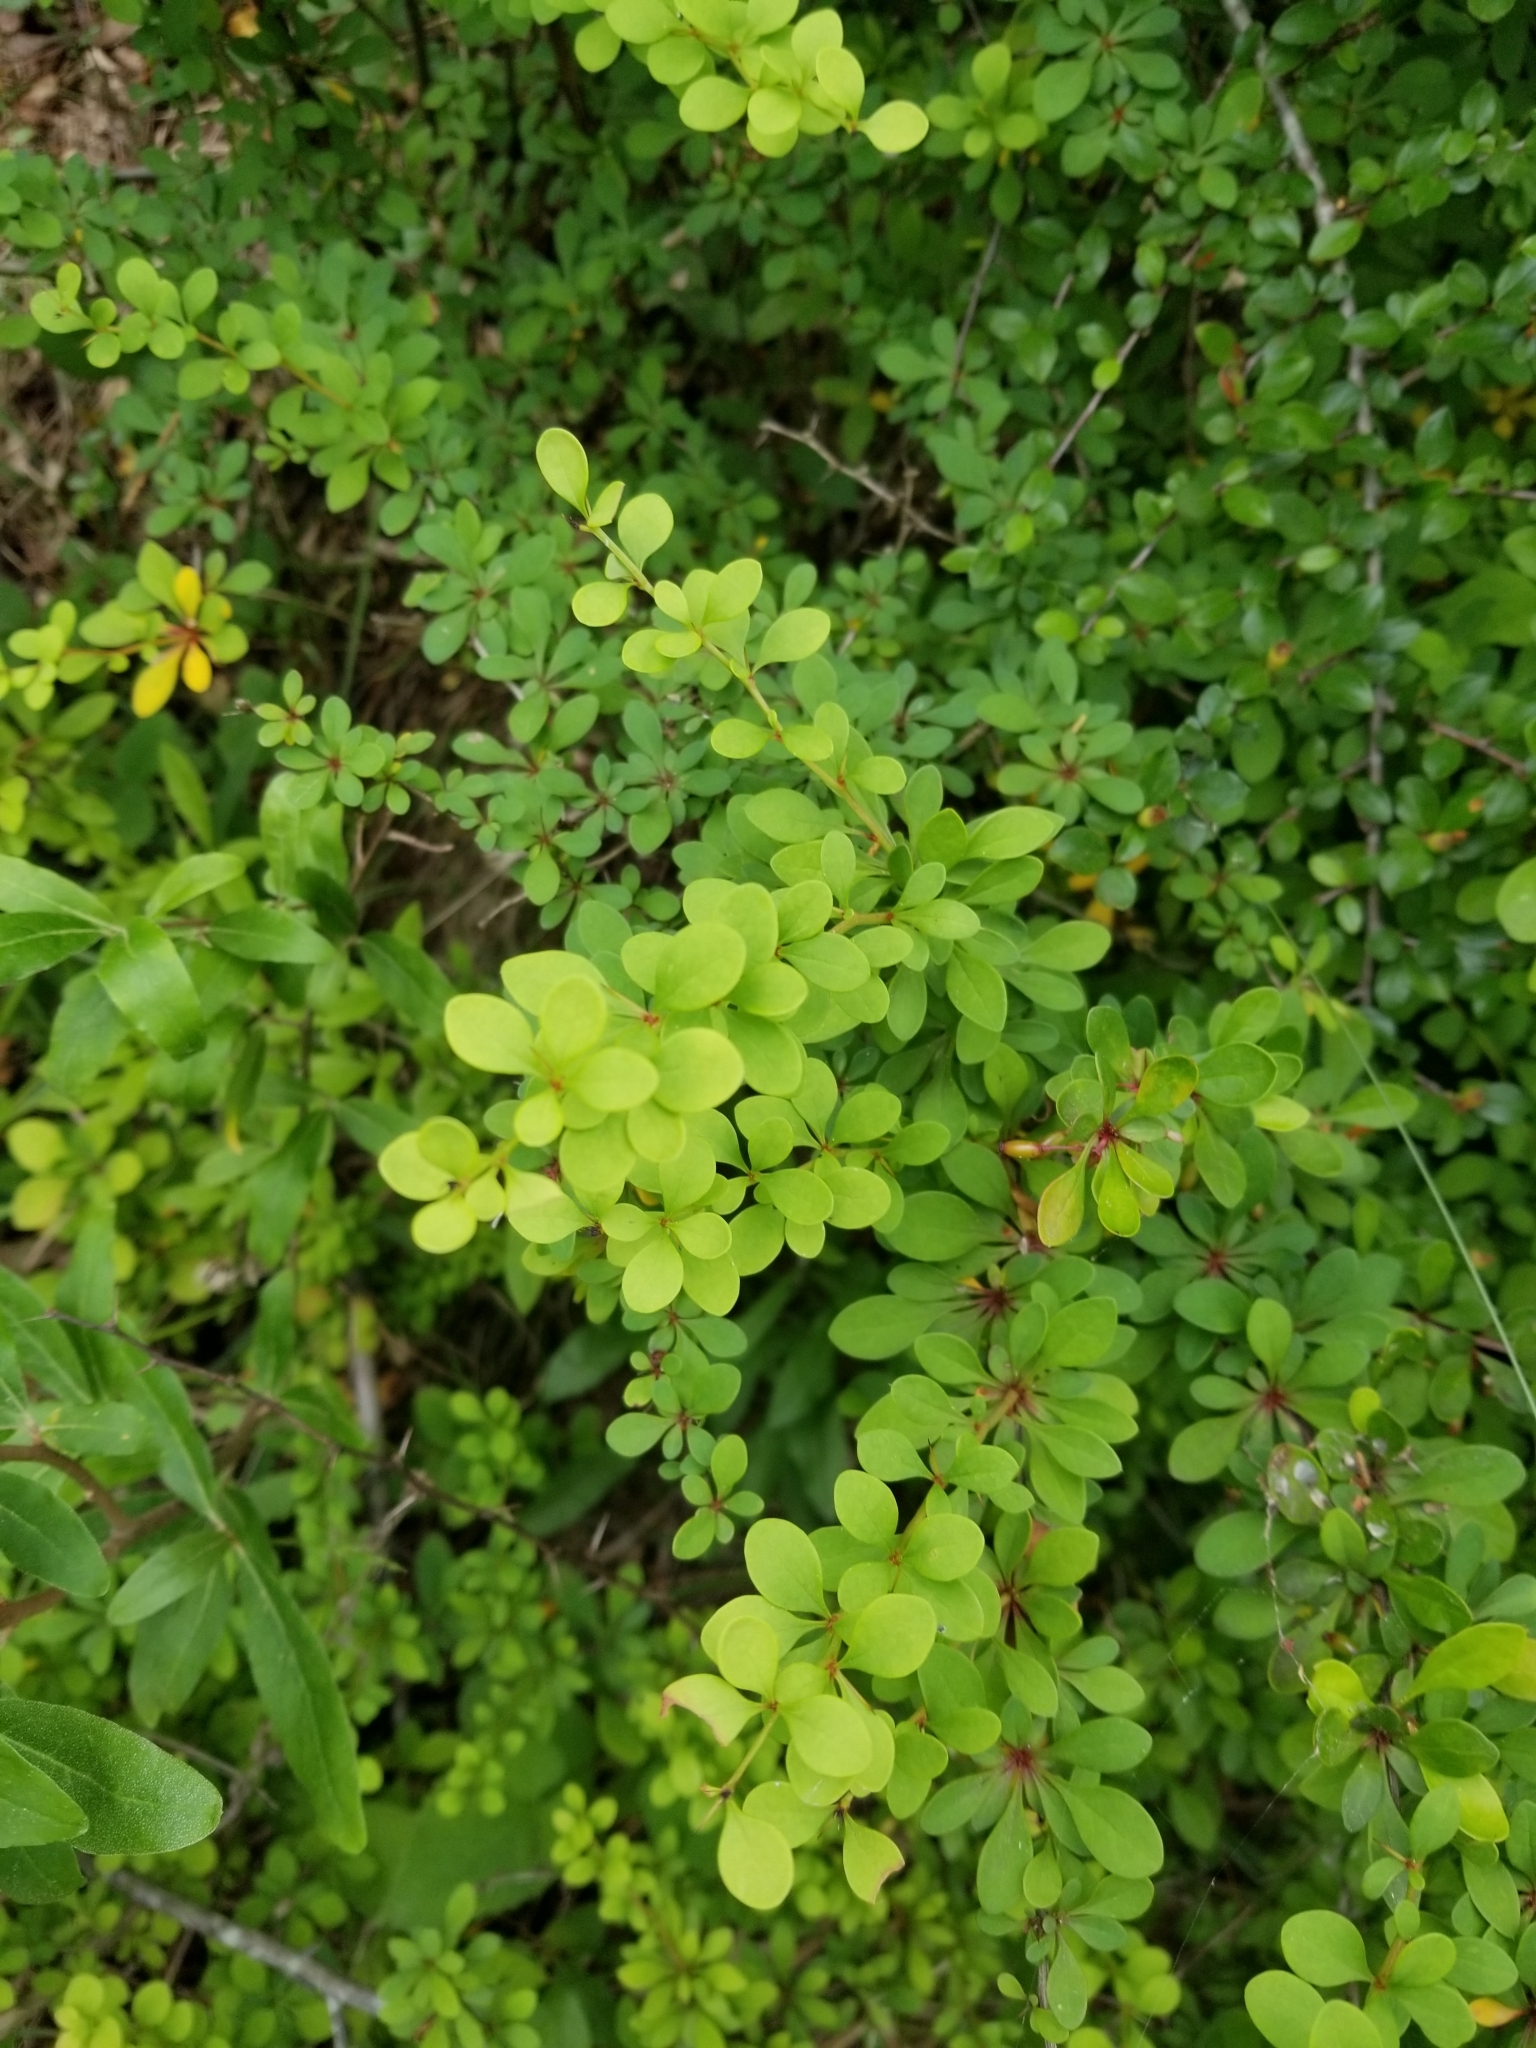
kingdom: Plantae
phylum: Tracheophyta
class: Magnoliopsida
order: Ranunculales
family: Berberidaceae
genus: Berberis
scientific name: Berberis thunbergii
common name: Japanese barberry
